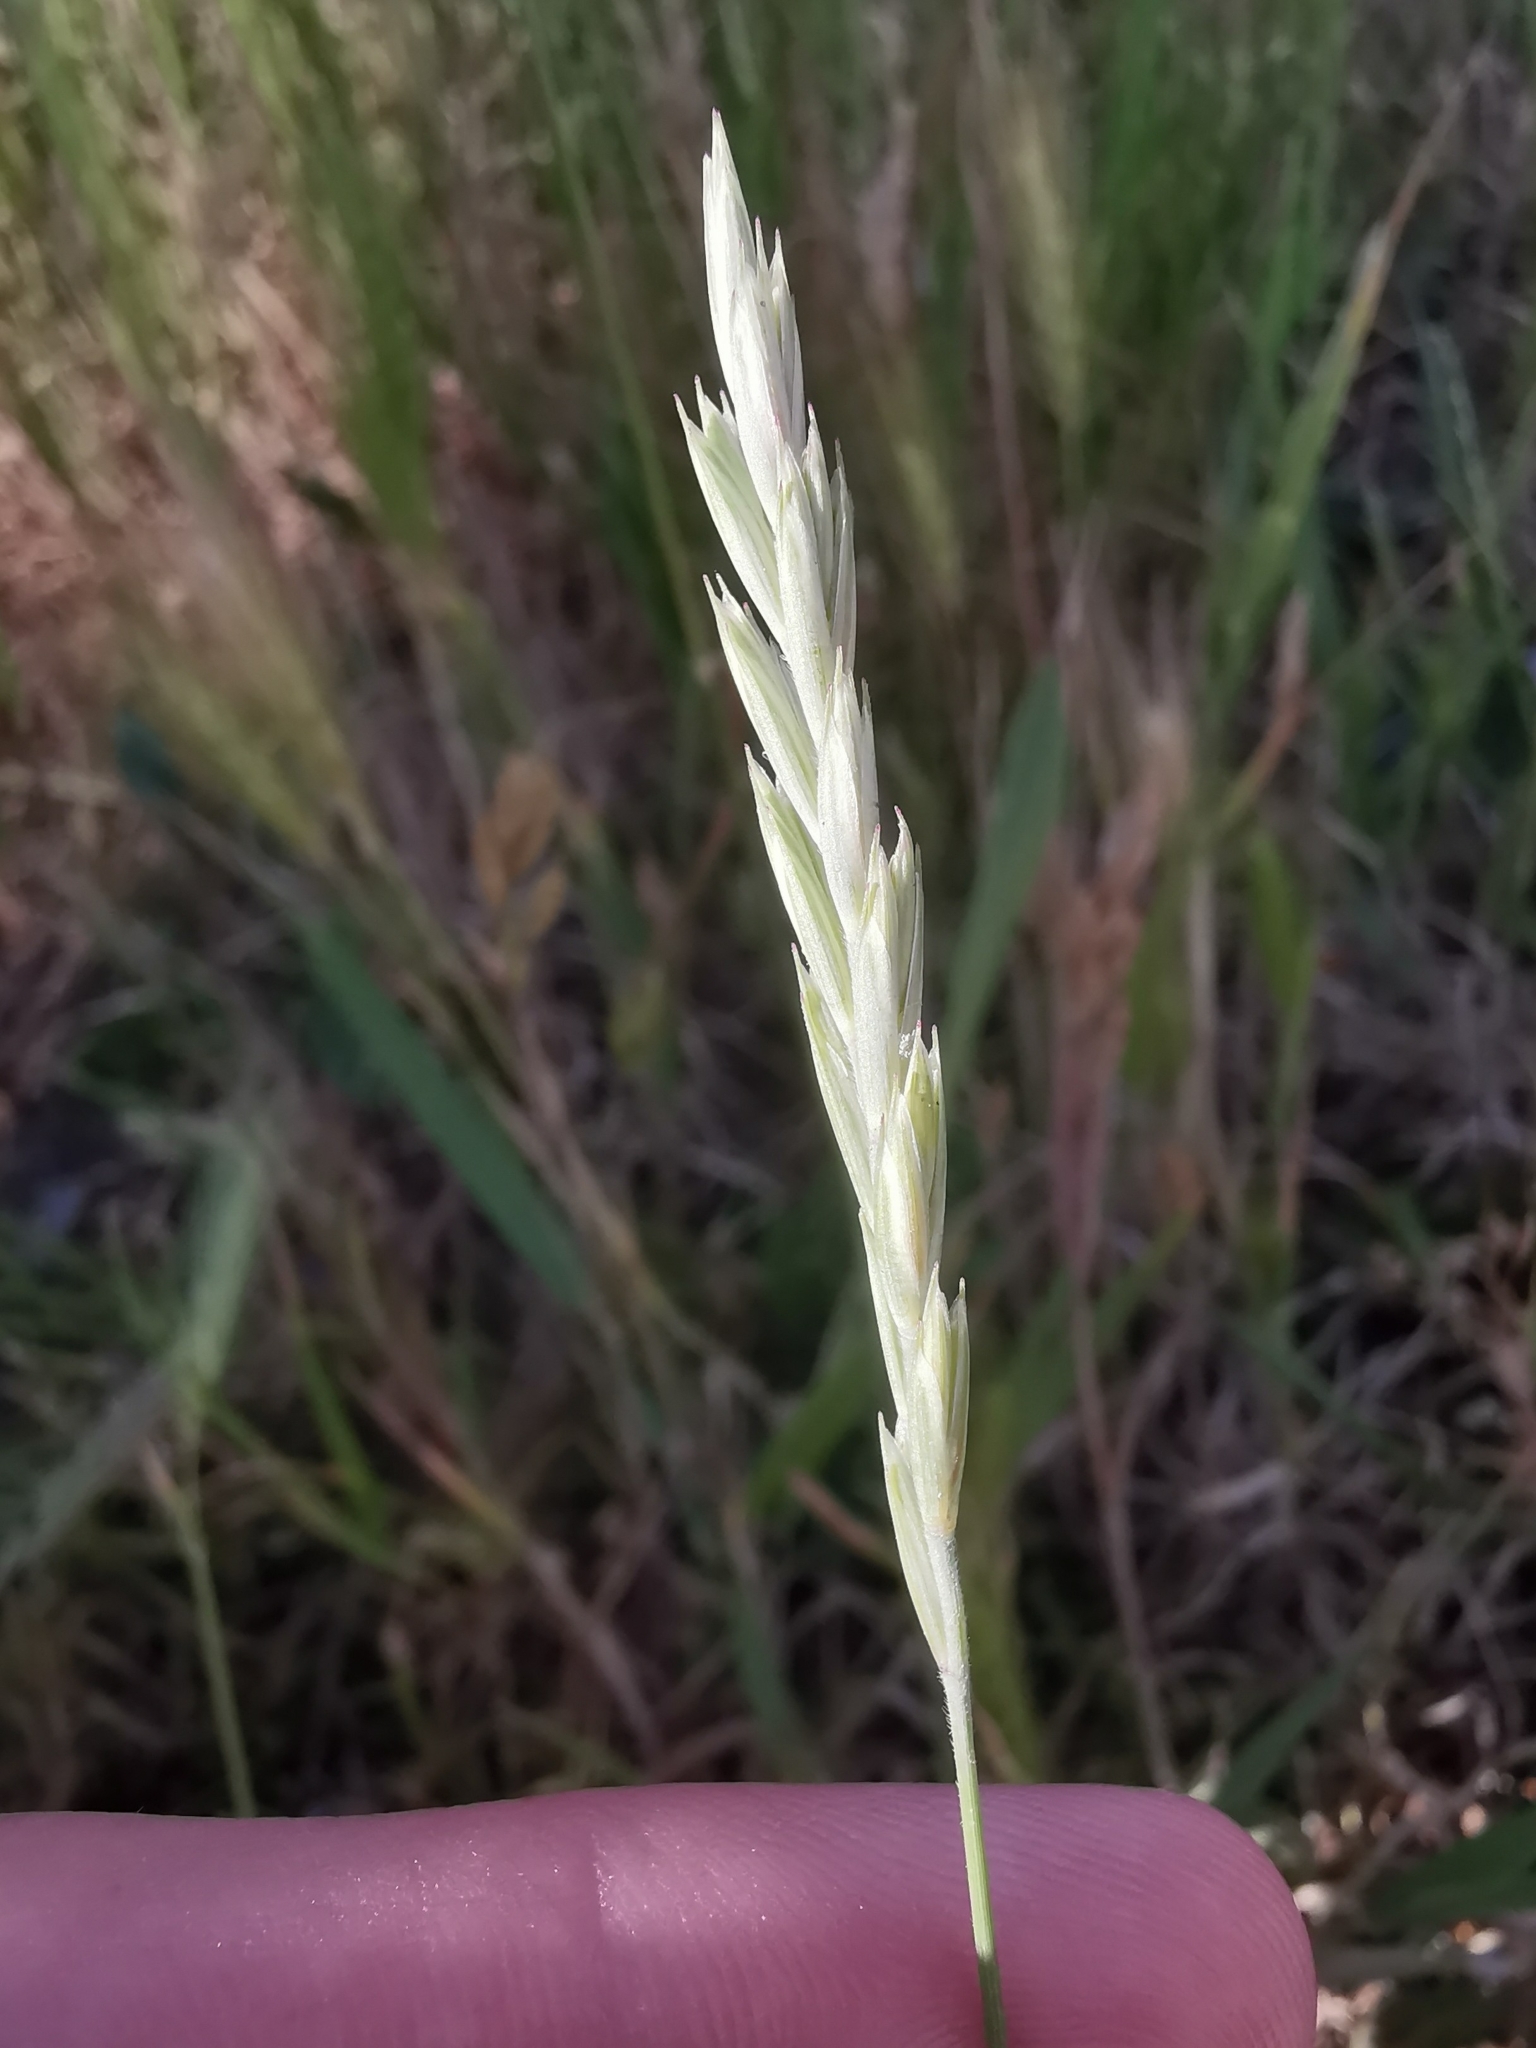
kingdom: Plantae
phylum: Tracheophyta
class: Liliopsida
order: Poales
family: Poaceae
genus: Elymus
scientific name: Elymus repens
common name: Quackgrass
